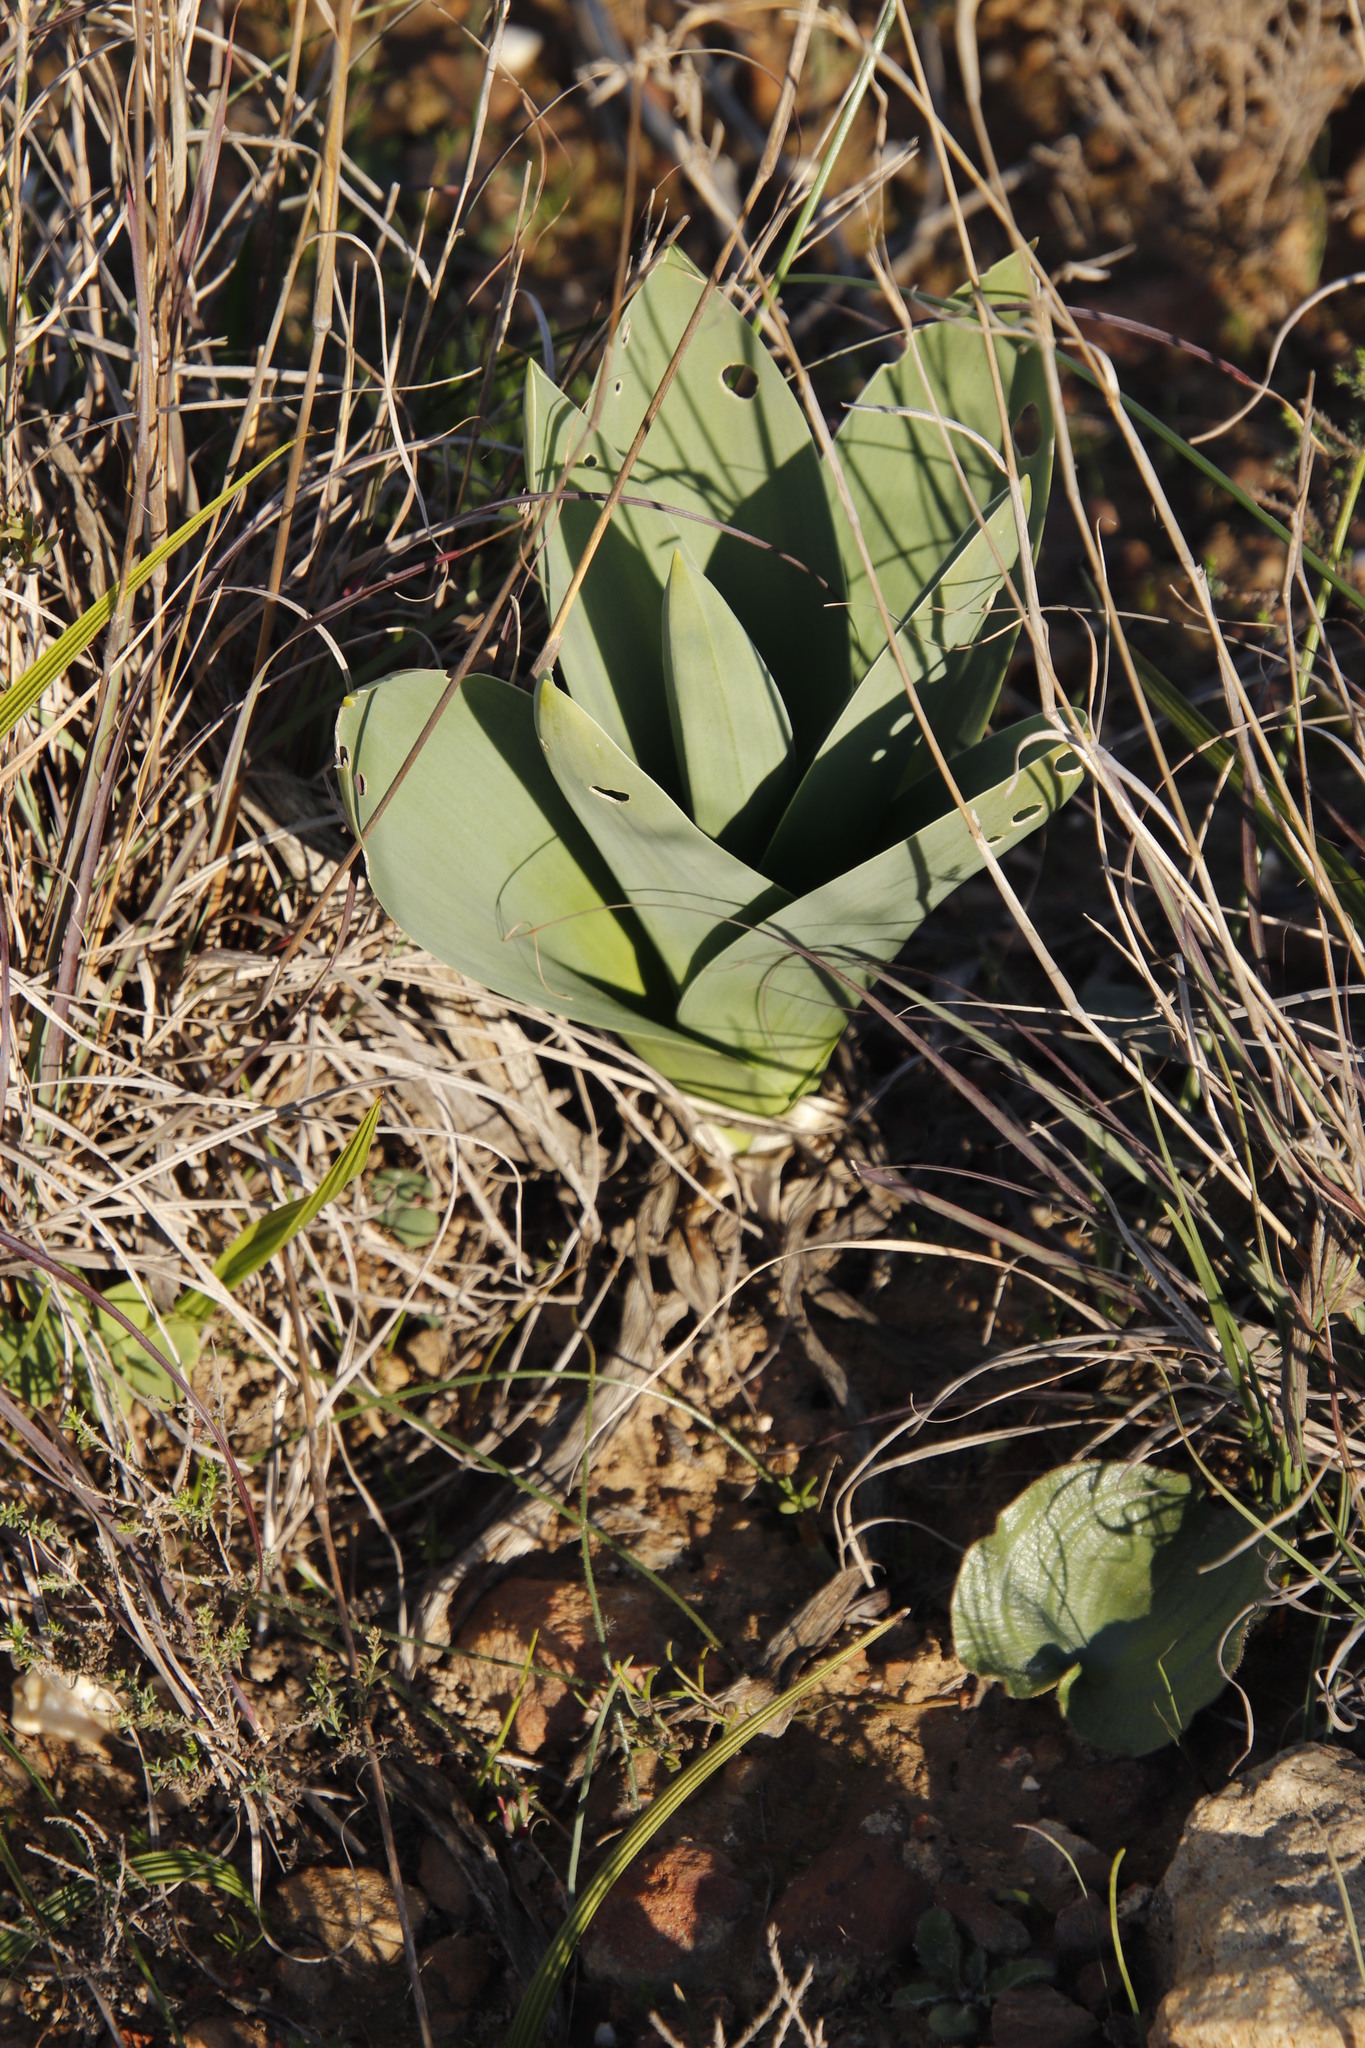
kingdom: Plantae
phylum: Tracheophyta
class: Liliopsida
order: Asparagales
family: Asparagaceae
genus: Drimia
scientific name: Drimia capensis
